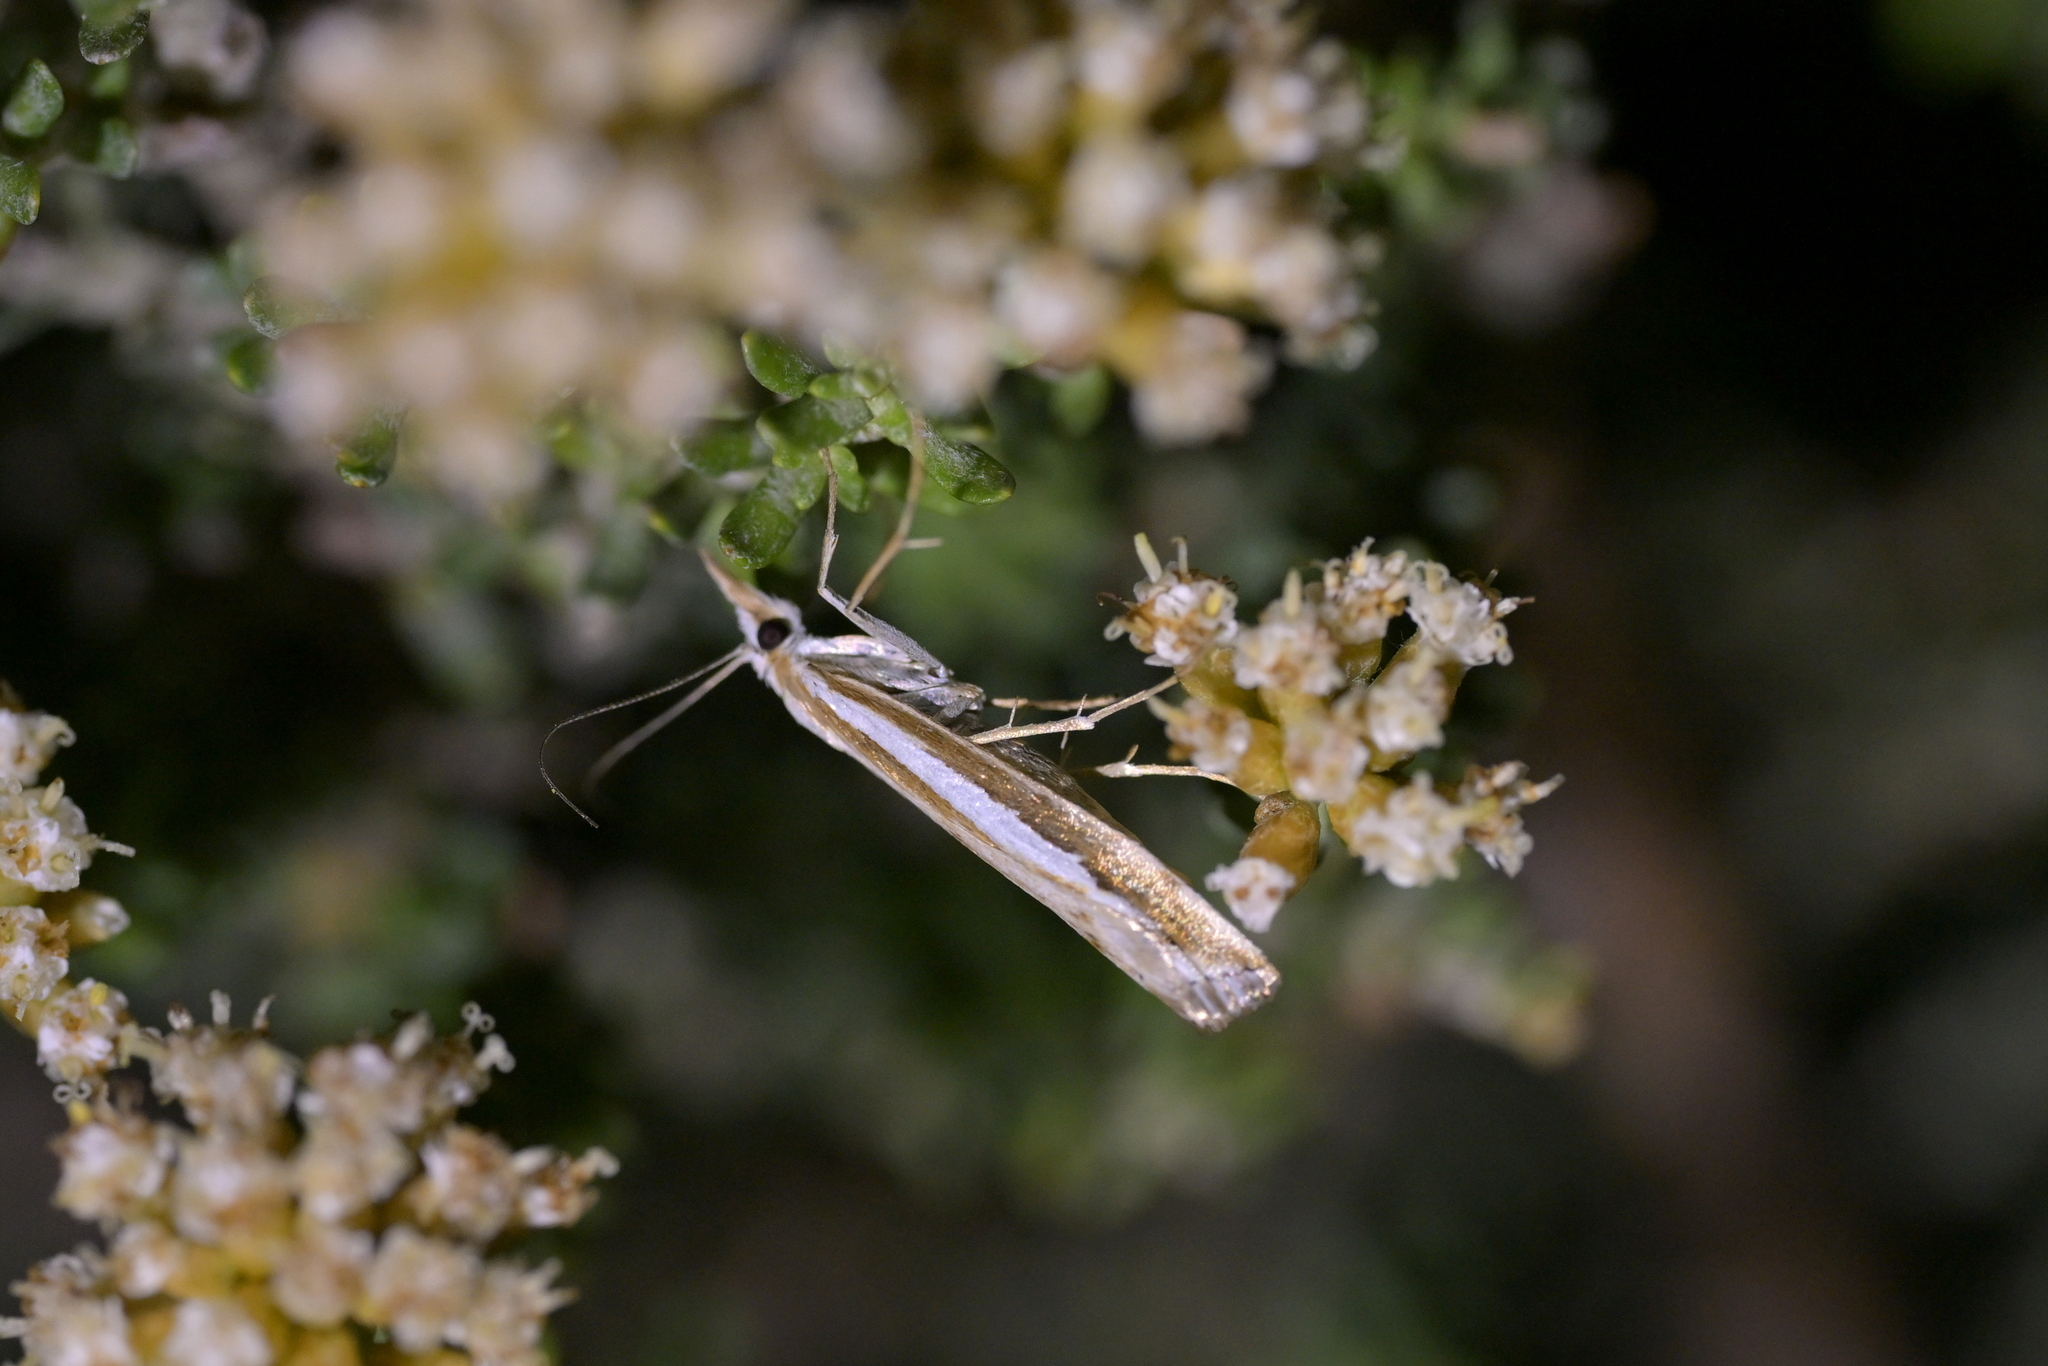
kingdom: Animalia
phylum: Arthropoda
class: Insecta
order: Lepidoptera
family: Crambidae
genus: Orocrambus
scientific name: Orocrambus vittellus
